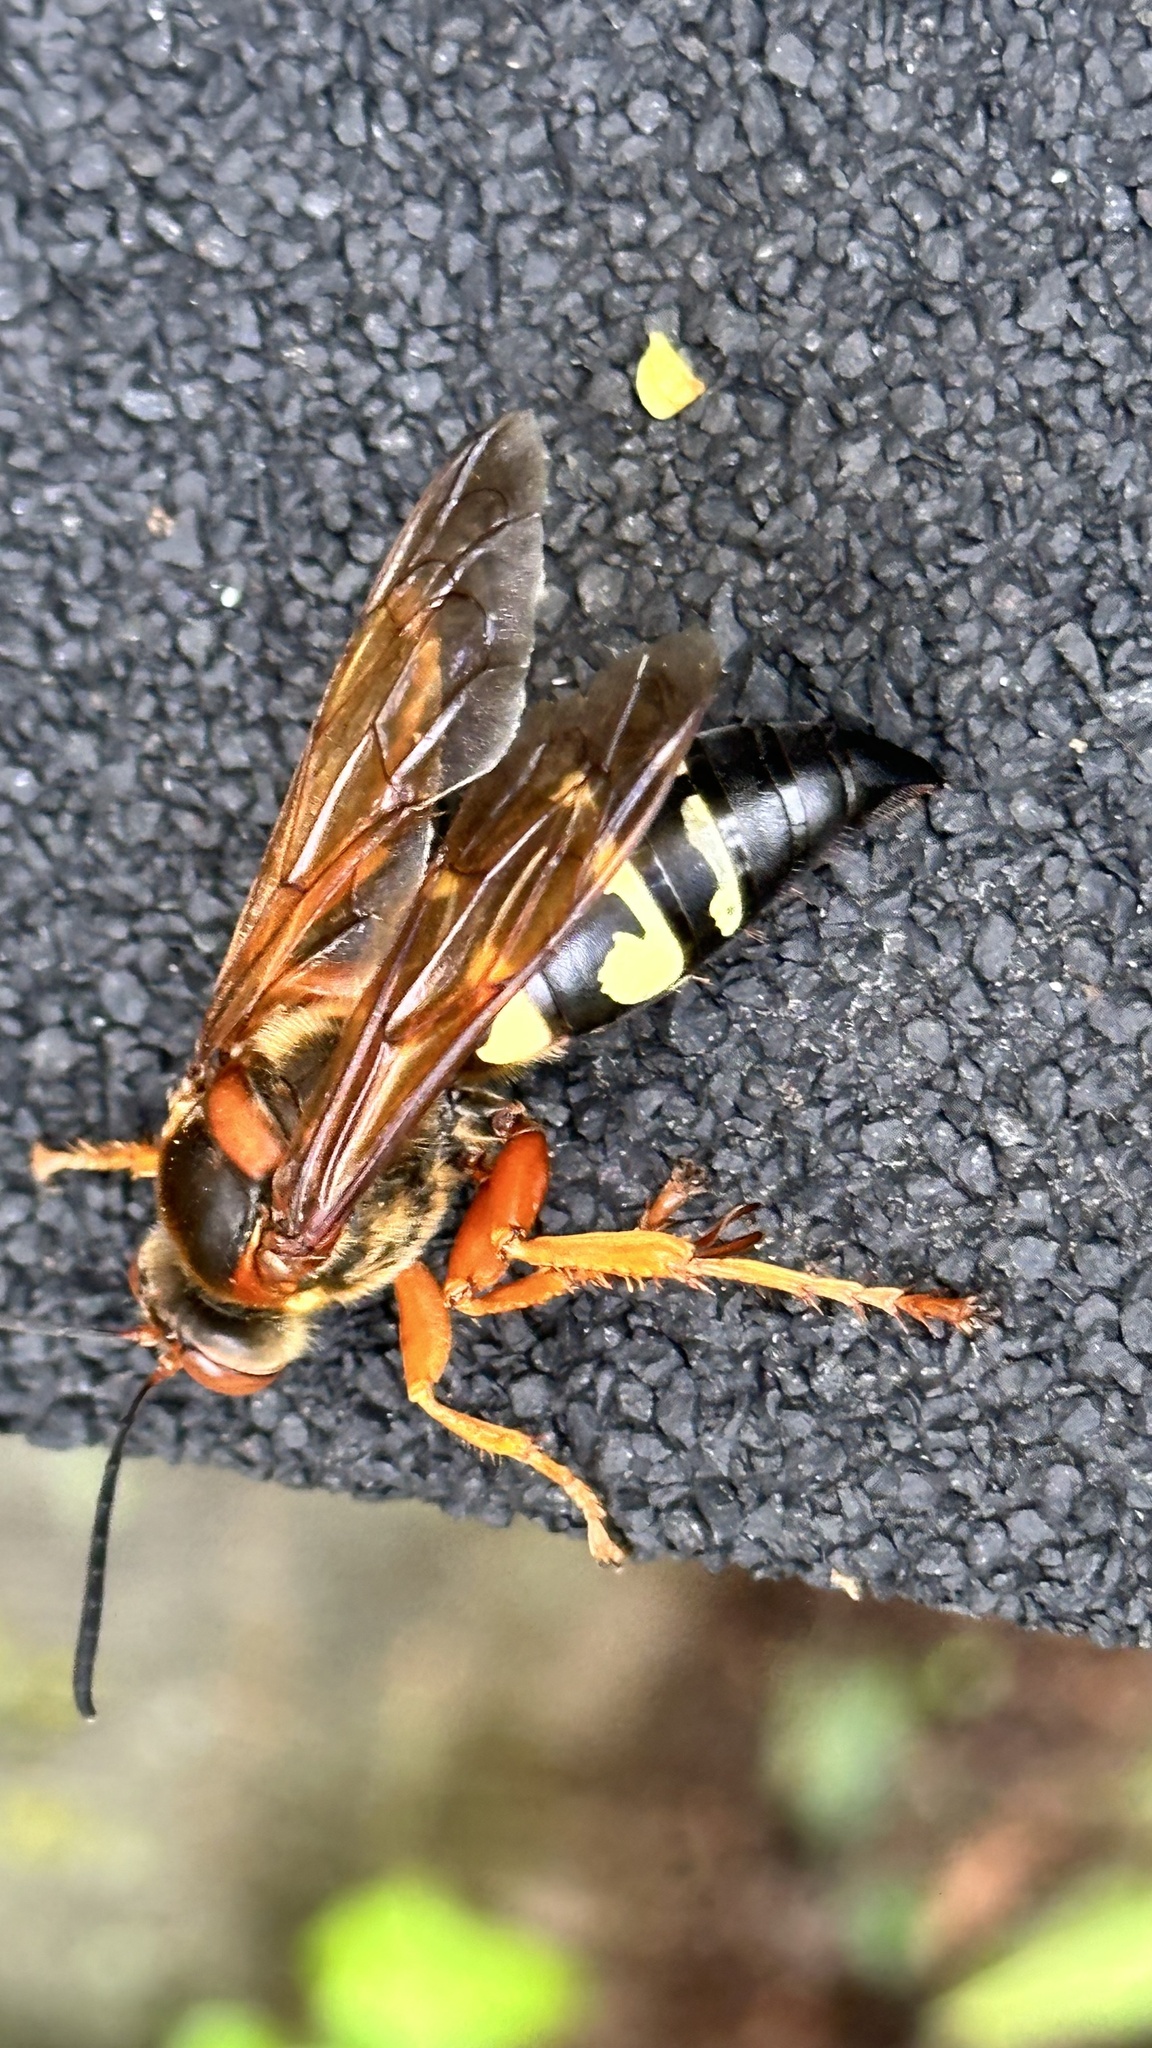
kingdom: Animalia
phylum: Arthropoda
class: Insecta
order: Hymenoptera
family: Crabronidae
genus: Sphecius
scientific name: Sphecius speciosus
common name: Cicada killer
